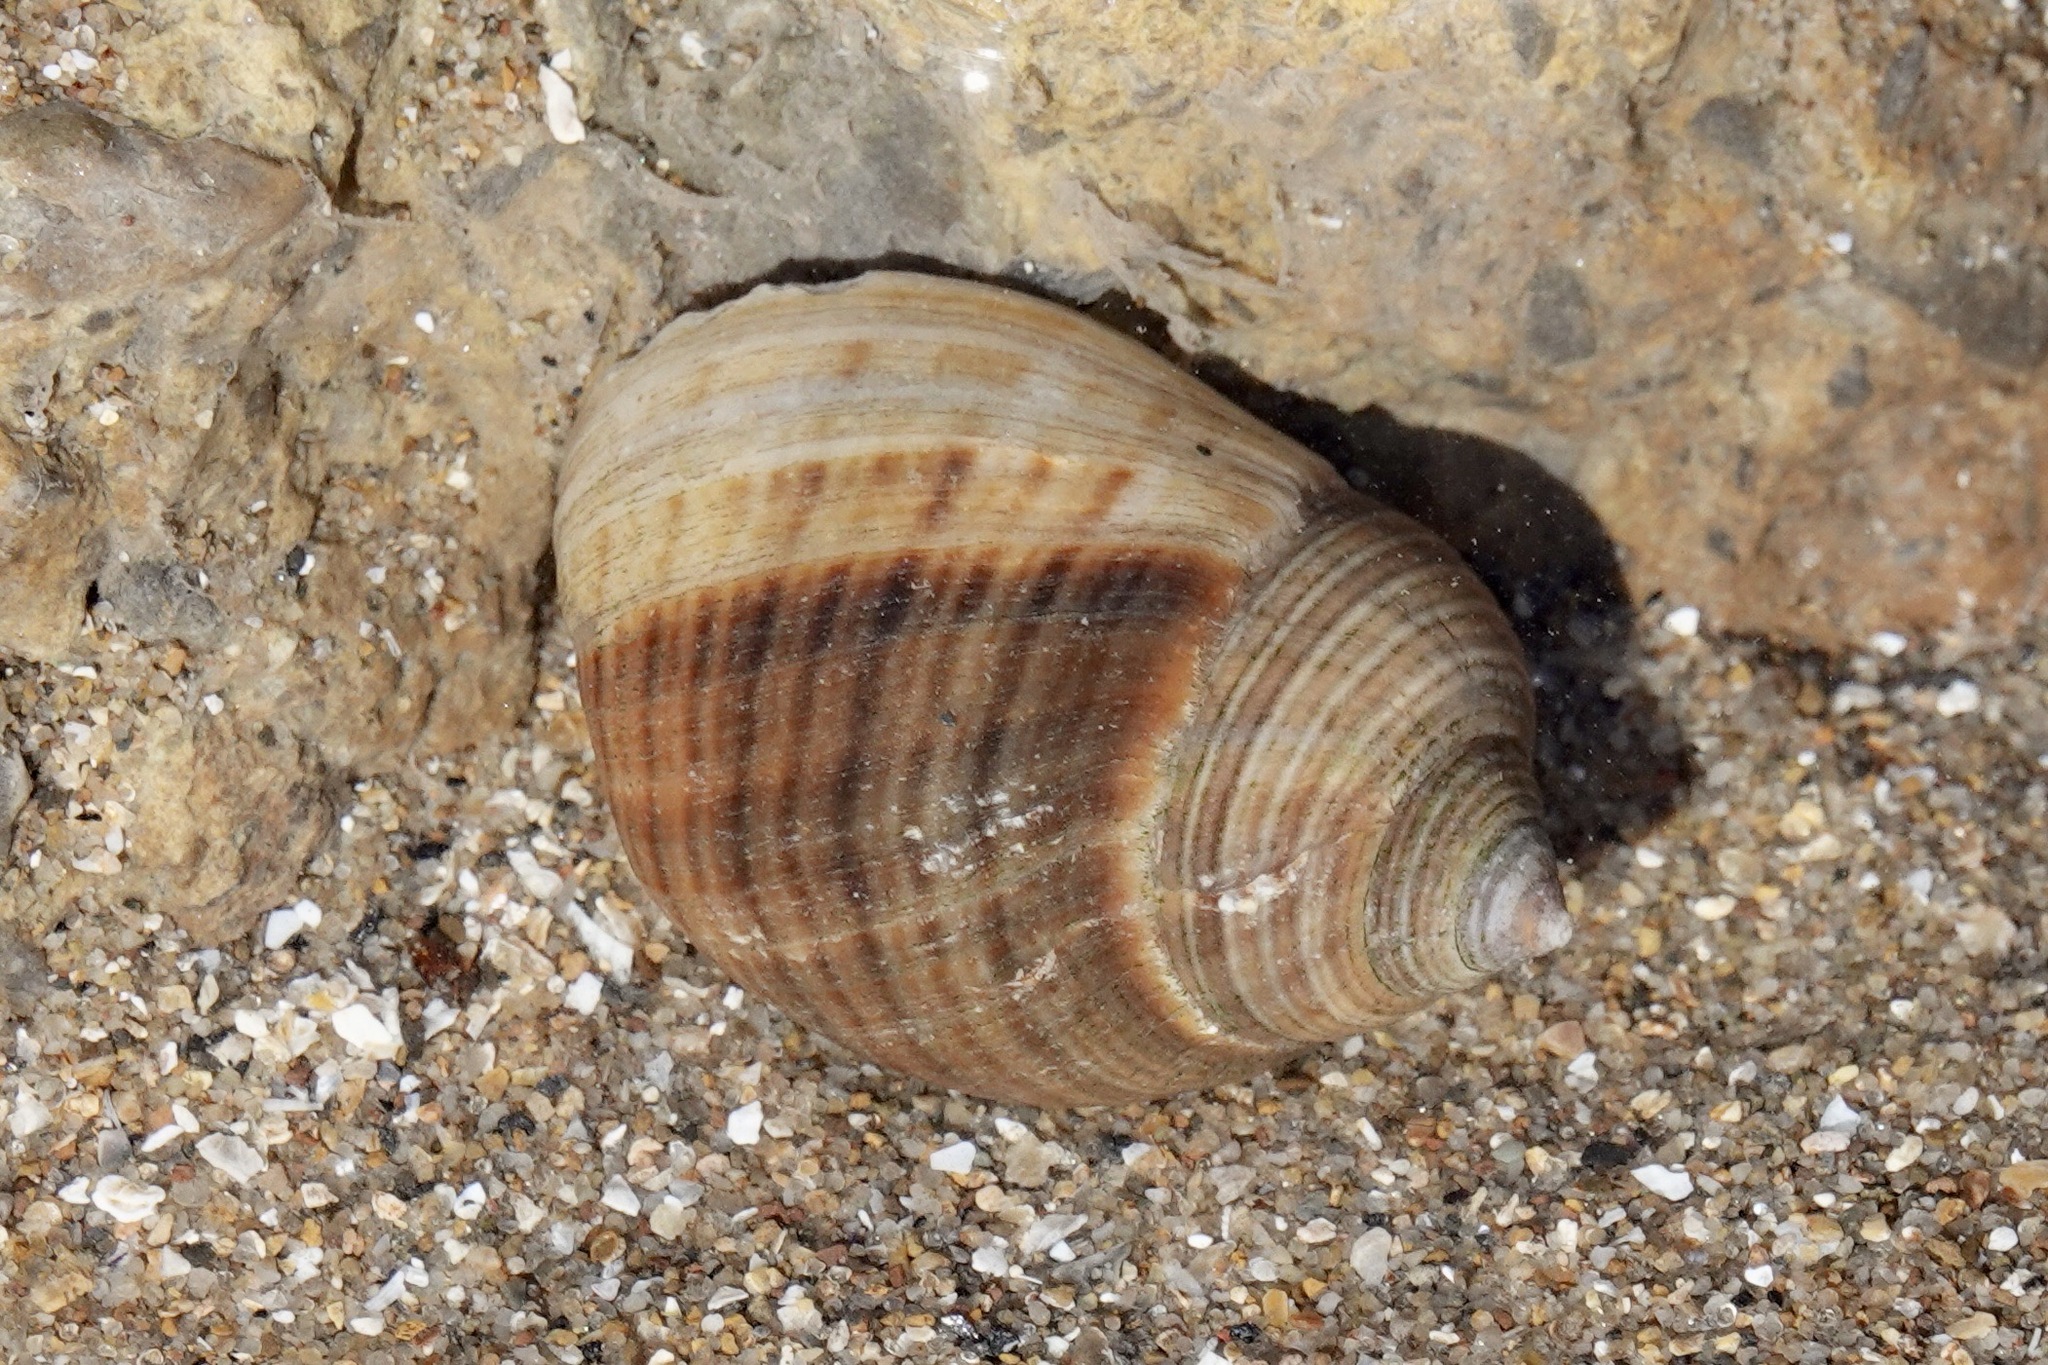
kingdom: Animalia
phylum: Mollusca
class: Gastropoda
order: Littorinimorpha
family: Littorinidae
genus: Littorina
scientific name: Littorina littorea
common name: Common periwinkle
